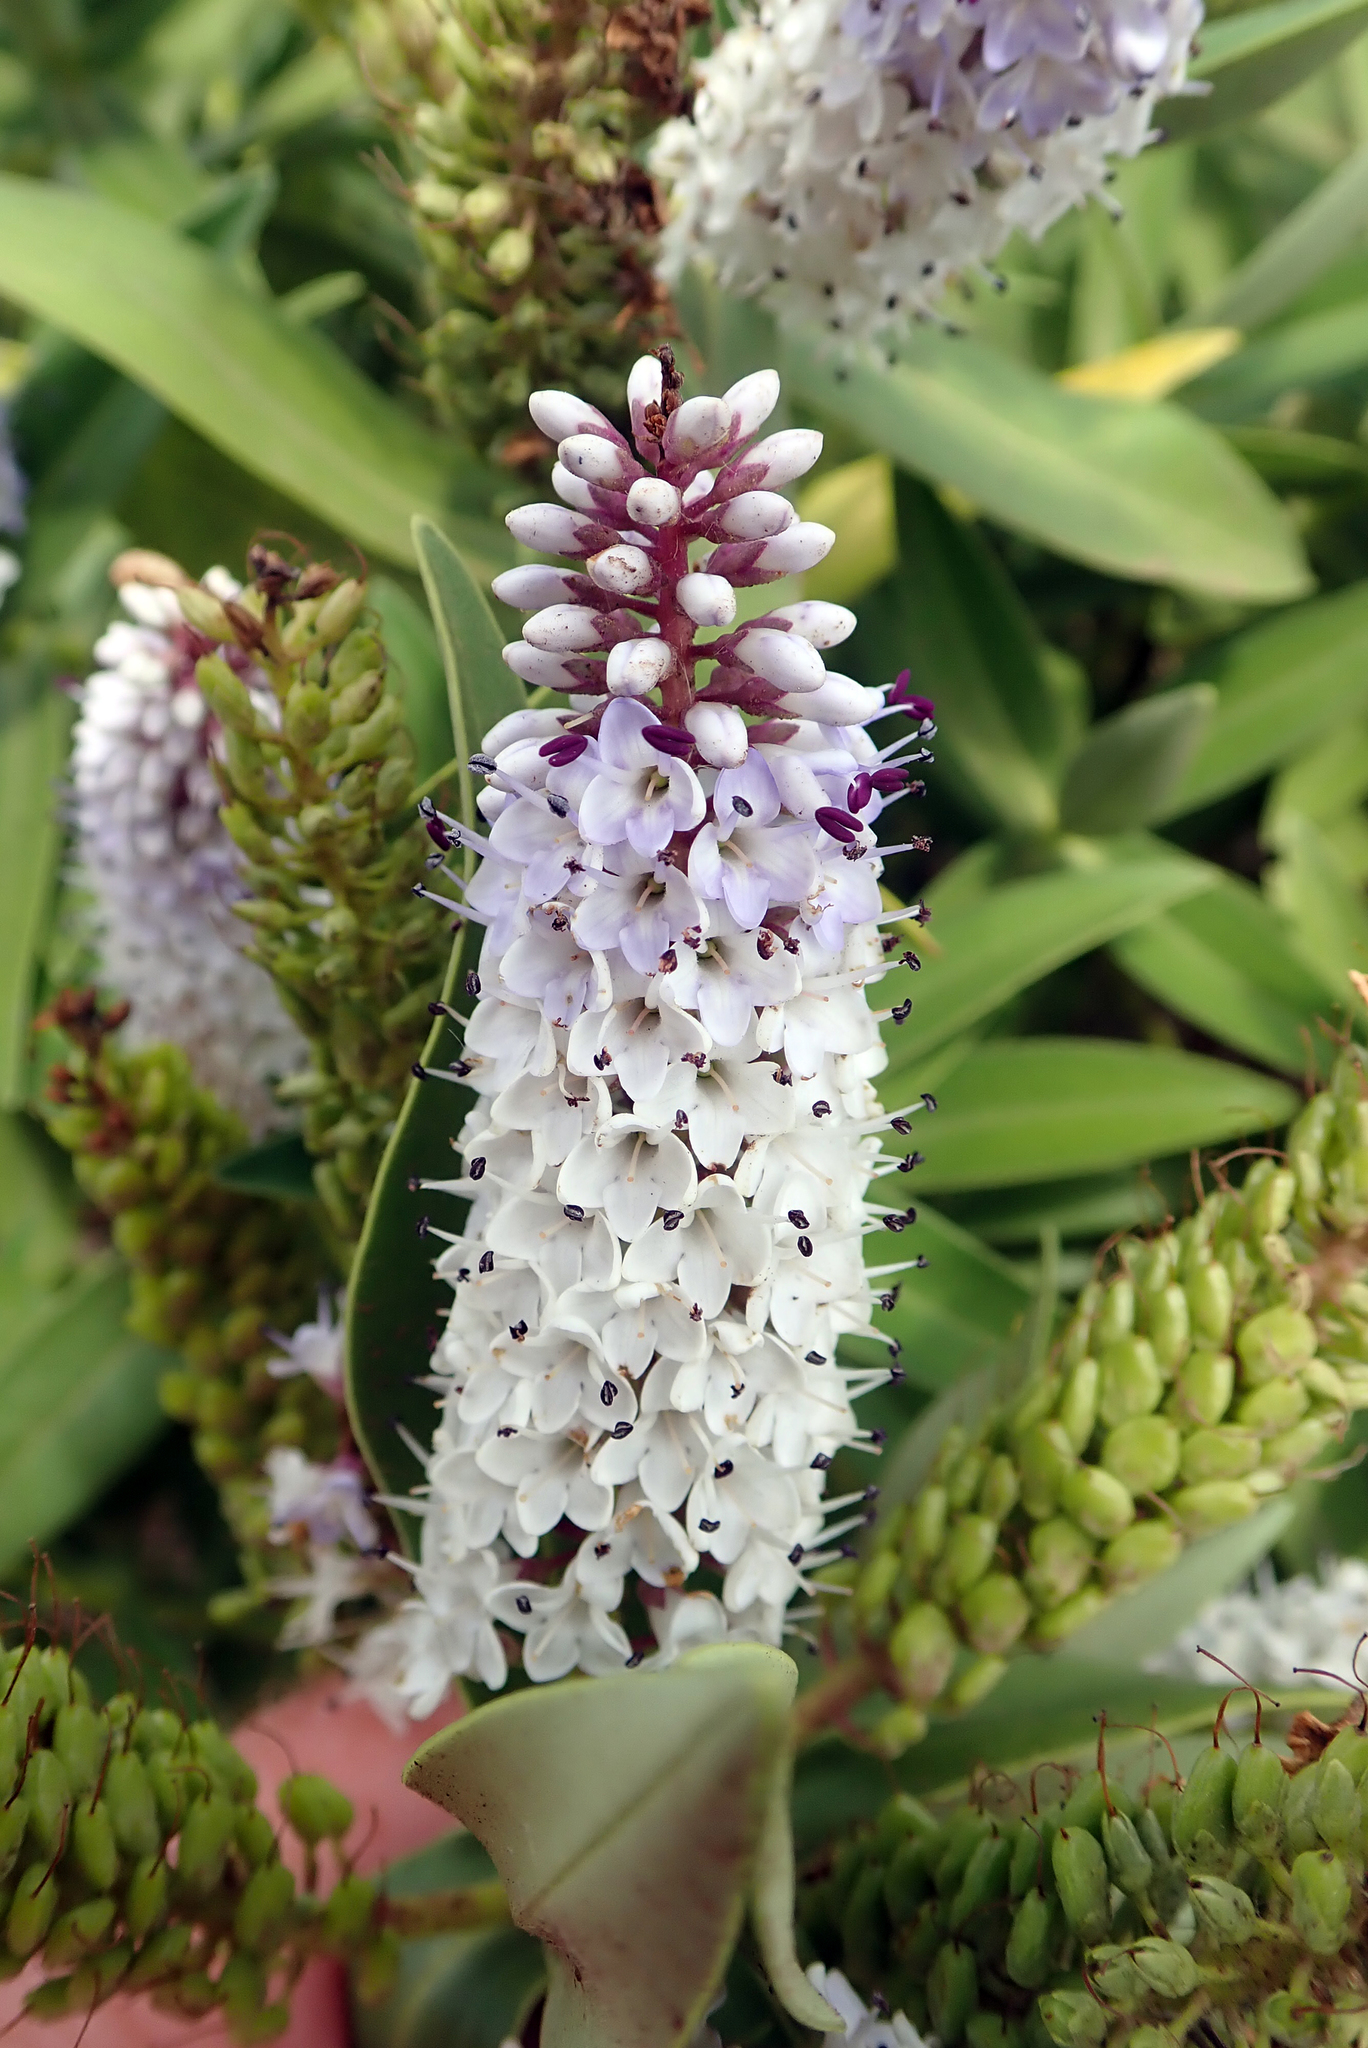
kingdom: Plantae
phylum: Tracheophyta
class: Magnoliopsida
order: Lamiales
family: Plantaginaceae
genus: Veronica
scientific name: Veronica dieffenbachii
